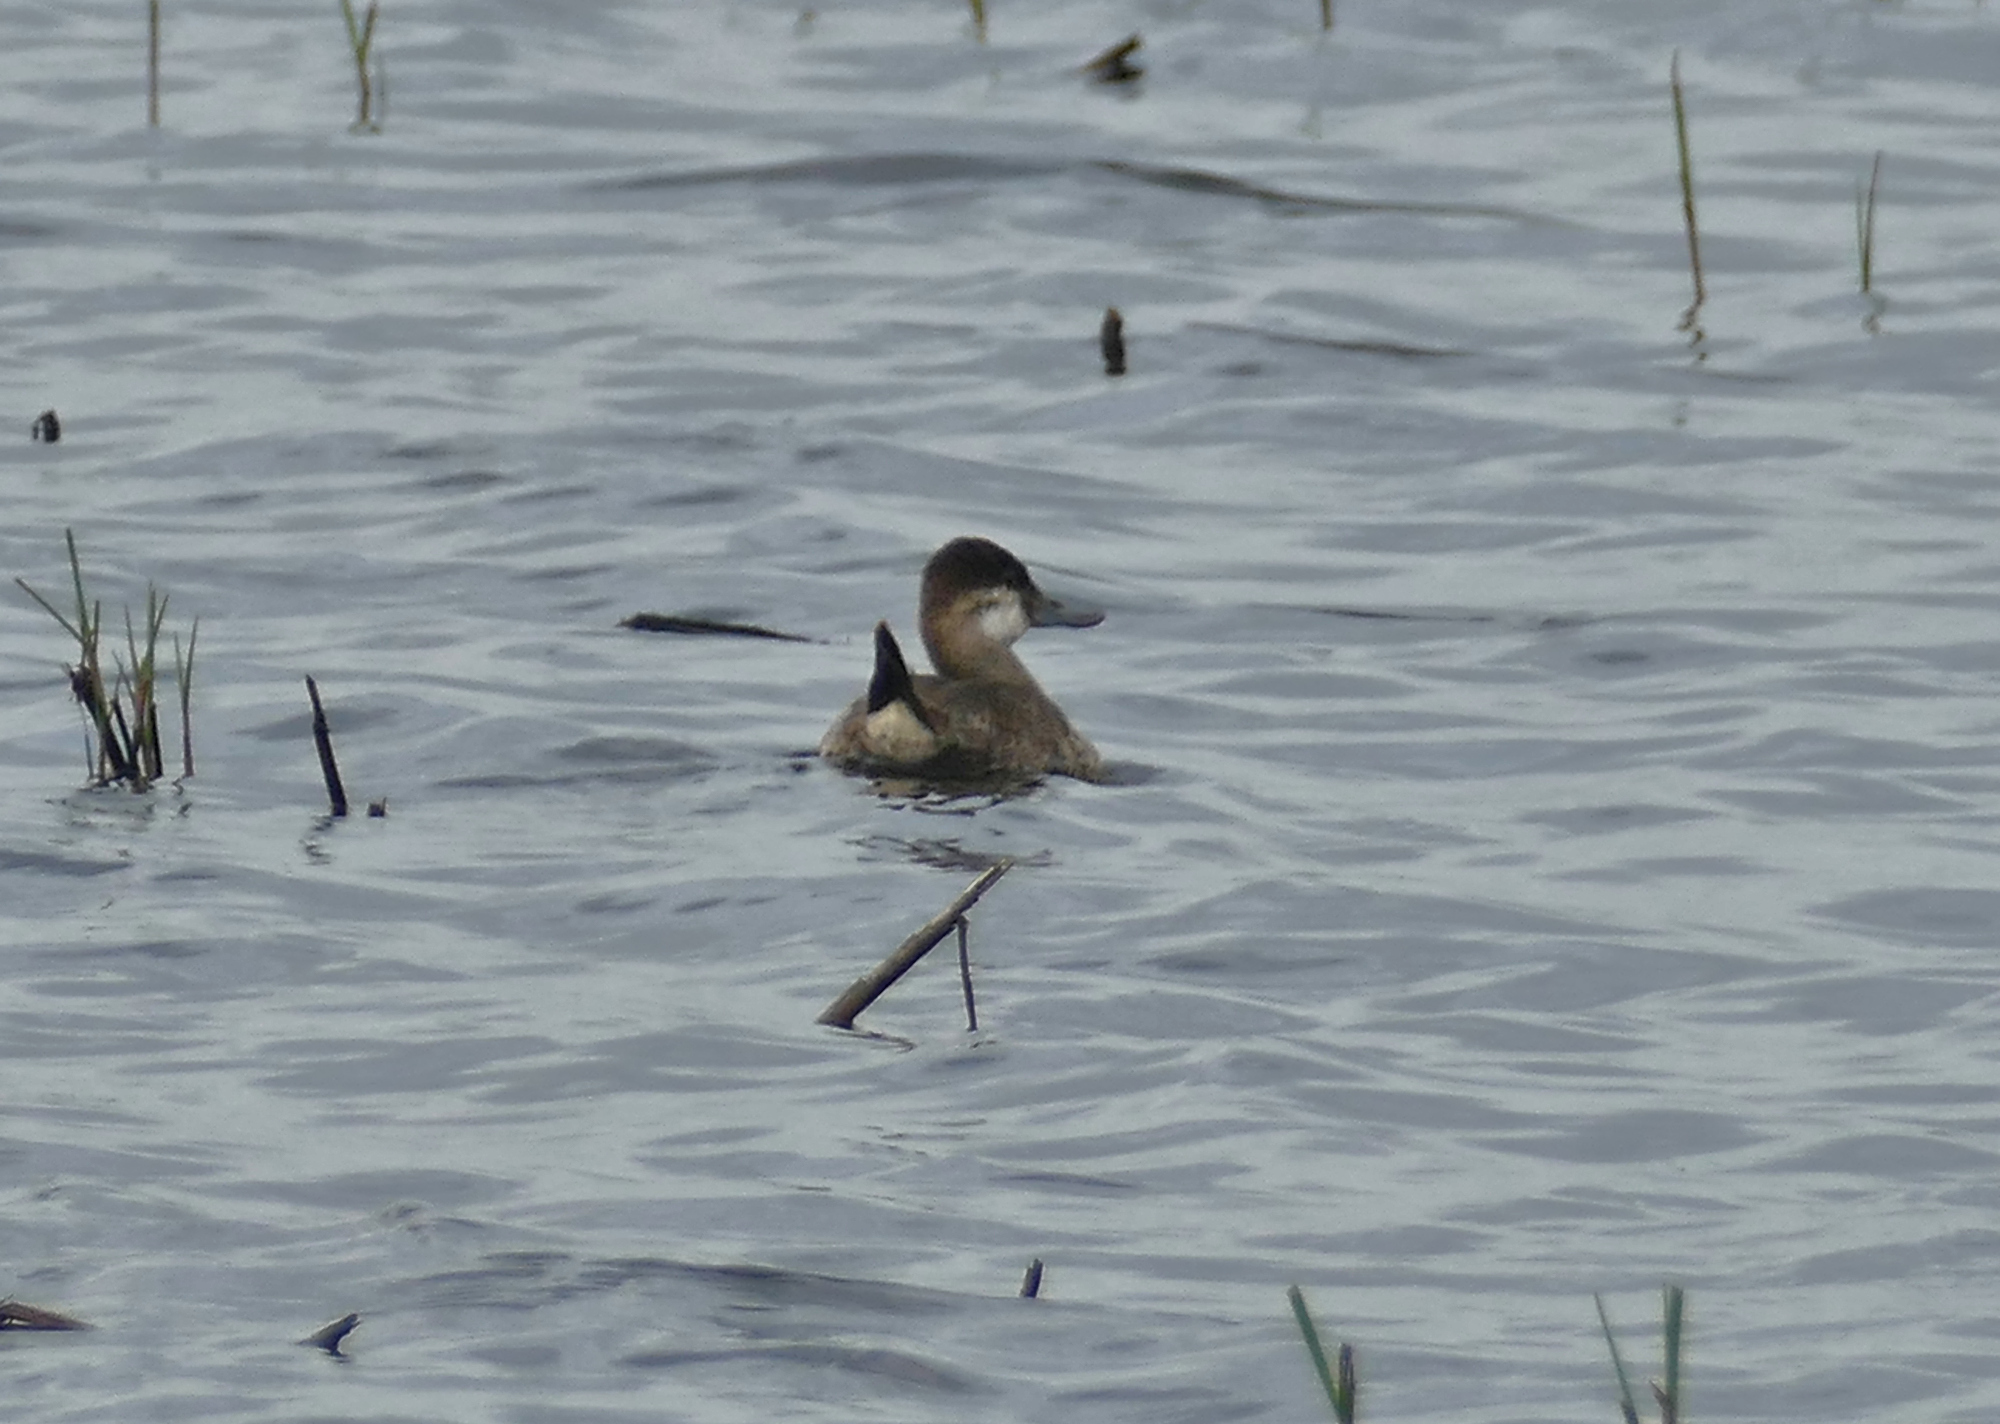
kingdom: Animalia
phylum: Chordata
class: Aves
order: Anseriformes
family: Anatidae
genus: Oxyura
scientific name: Oxyura jamaicensis
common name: Ruddy duck
